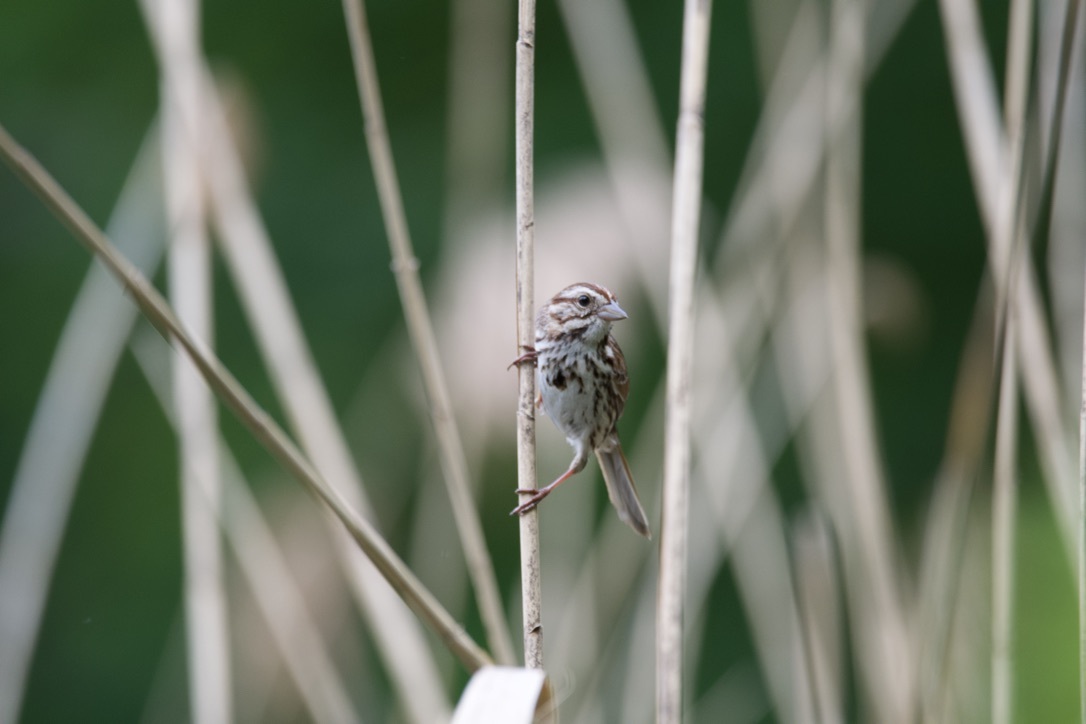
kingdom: Animalia
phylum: Chordata
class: Aves
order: Passeriformes
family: Passerellidae
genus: Melospiza
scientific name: Melospiza melodia
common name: Song sparrow
